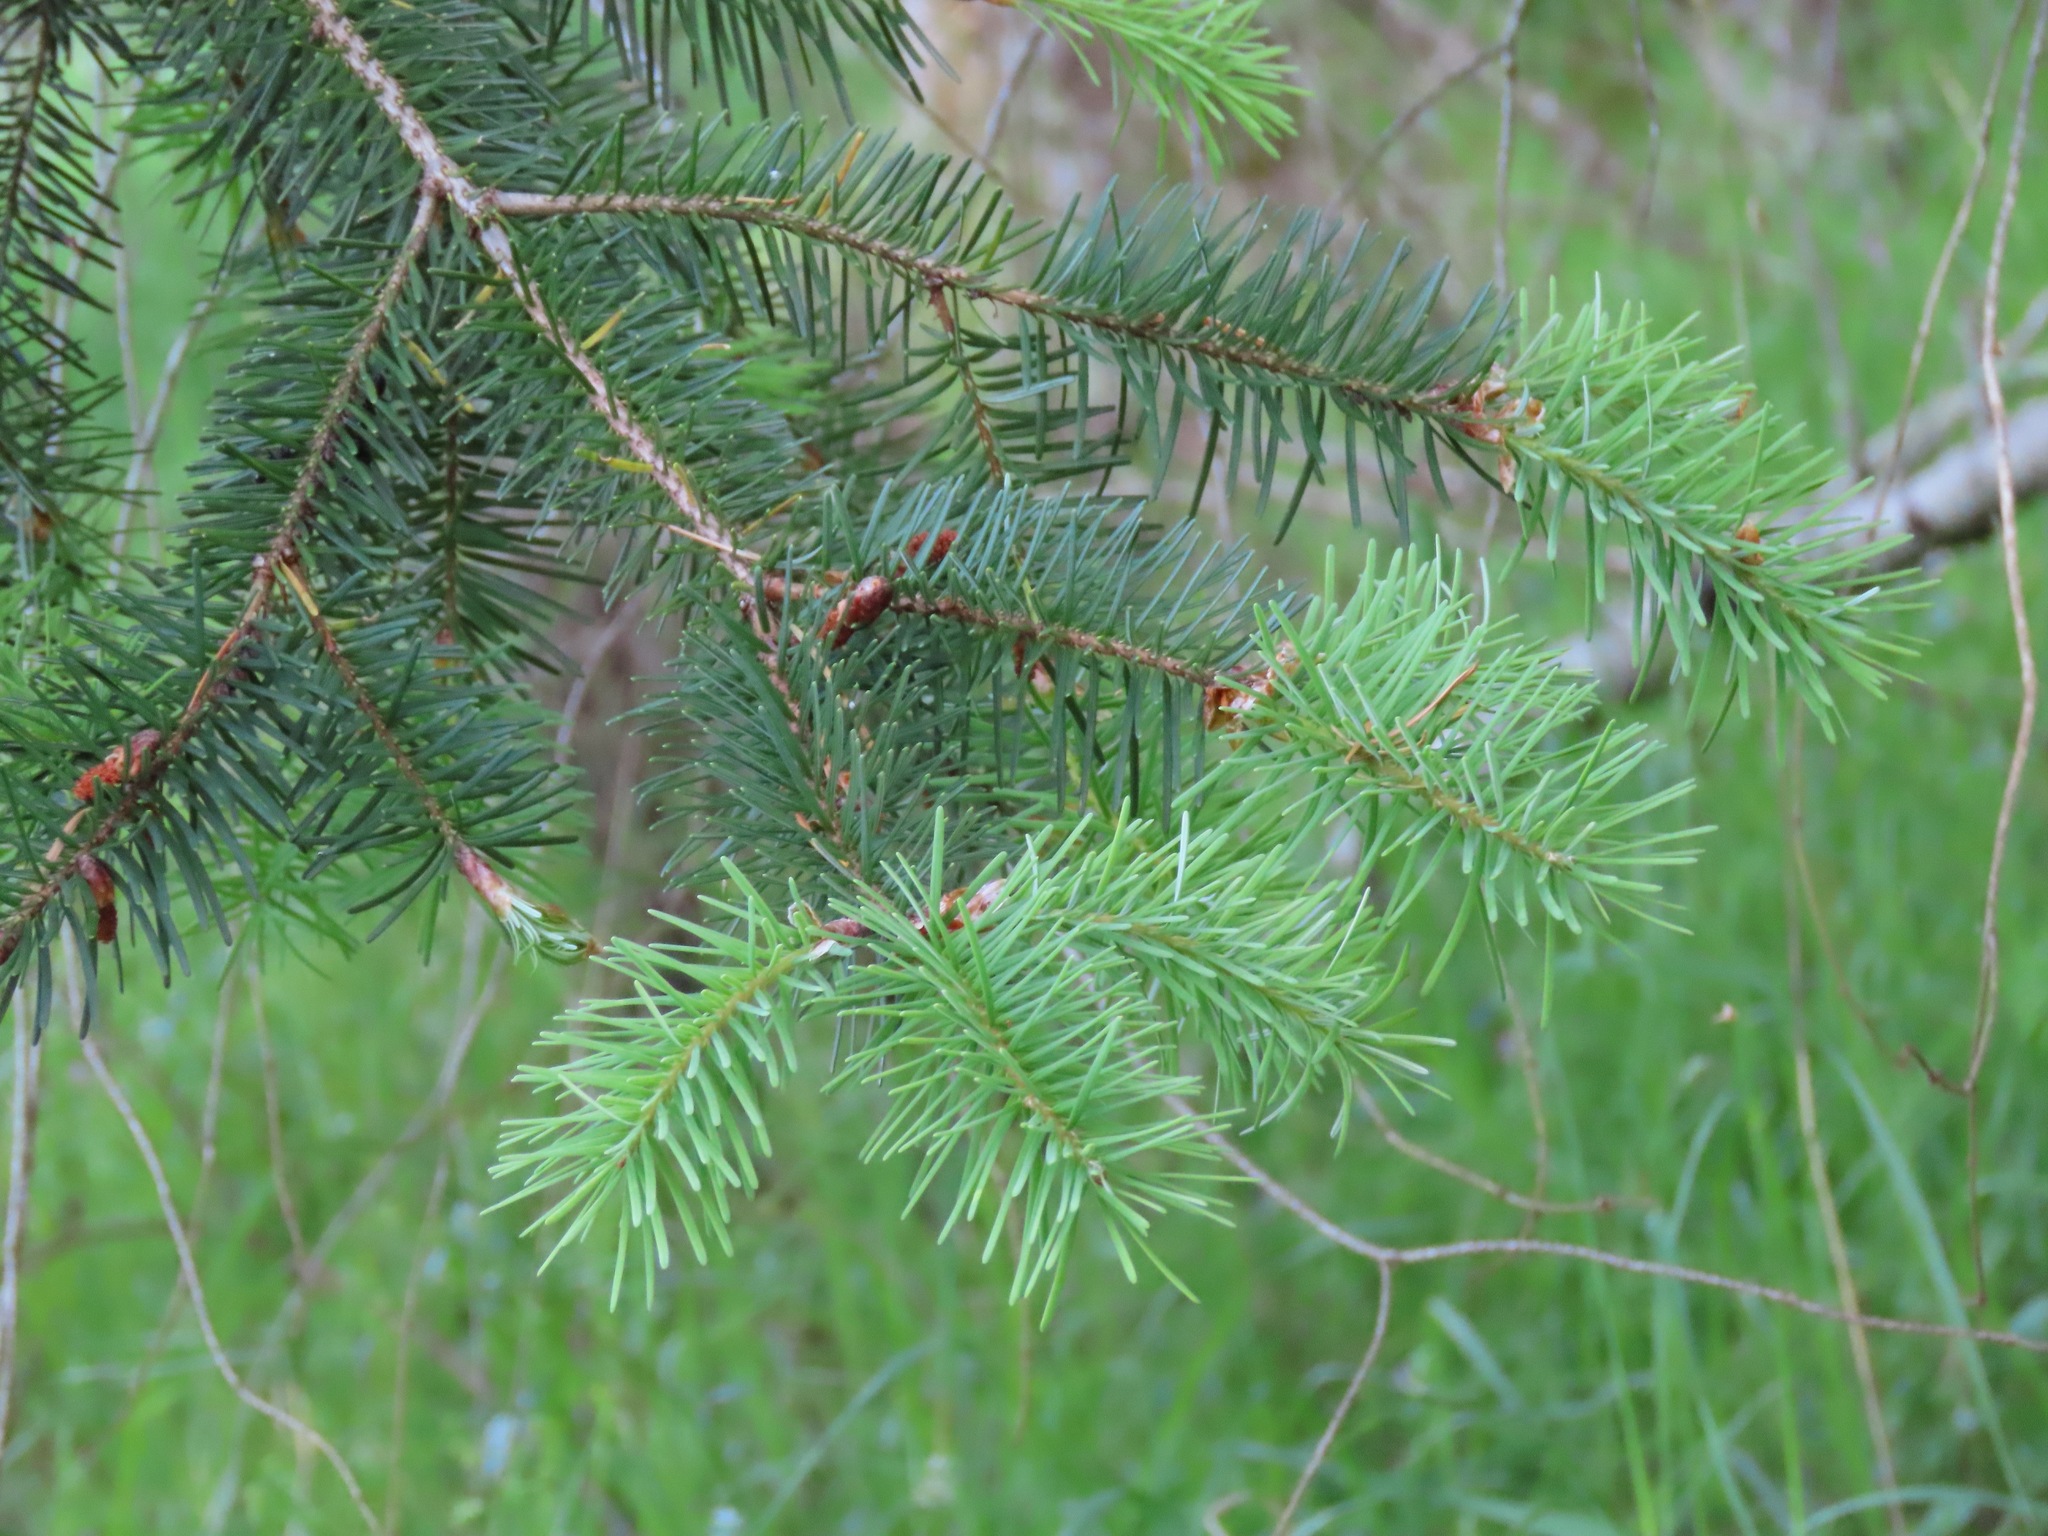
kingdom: Plantae
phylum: Tracheophyta
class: Pinopsida
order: Pinales
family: Pinaceae
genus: Pseudotsuga
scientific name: Pseudotsuga menziesii
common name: Douglas fir
